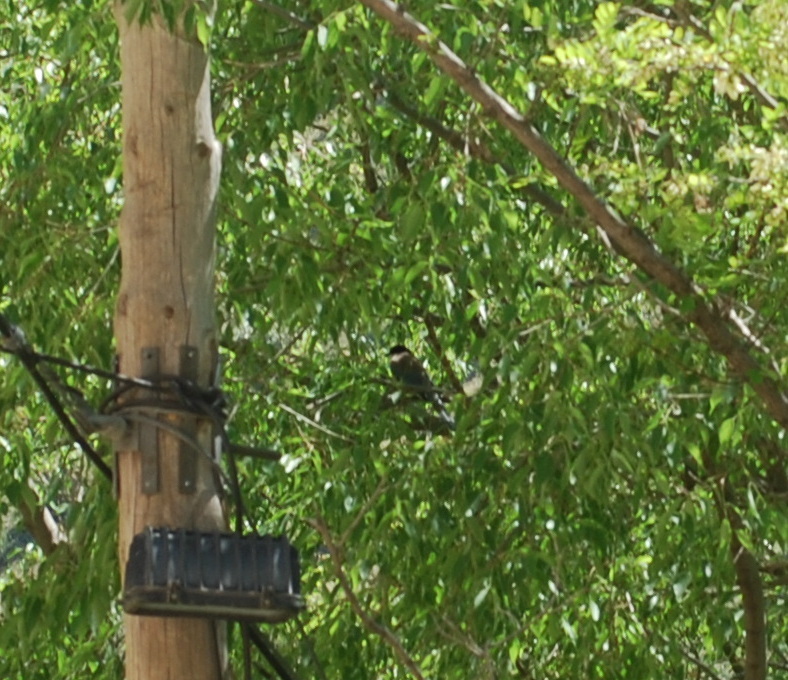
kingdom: Animalia
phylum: Chordata
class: Aves
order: Passeriformes
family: Corvidae
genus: Cyanopica
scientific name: Cyanopica cooki
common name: Iberian magpie
